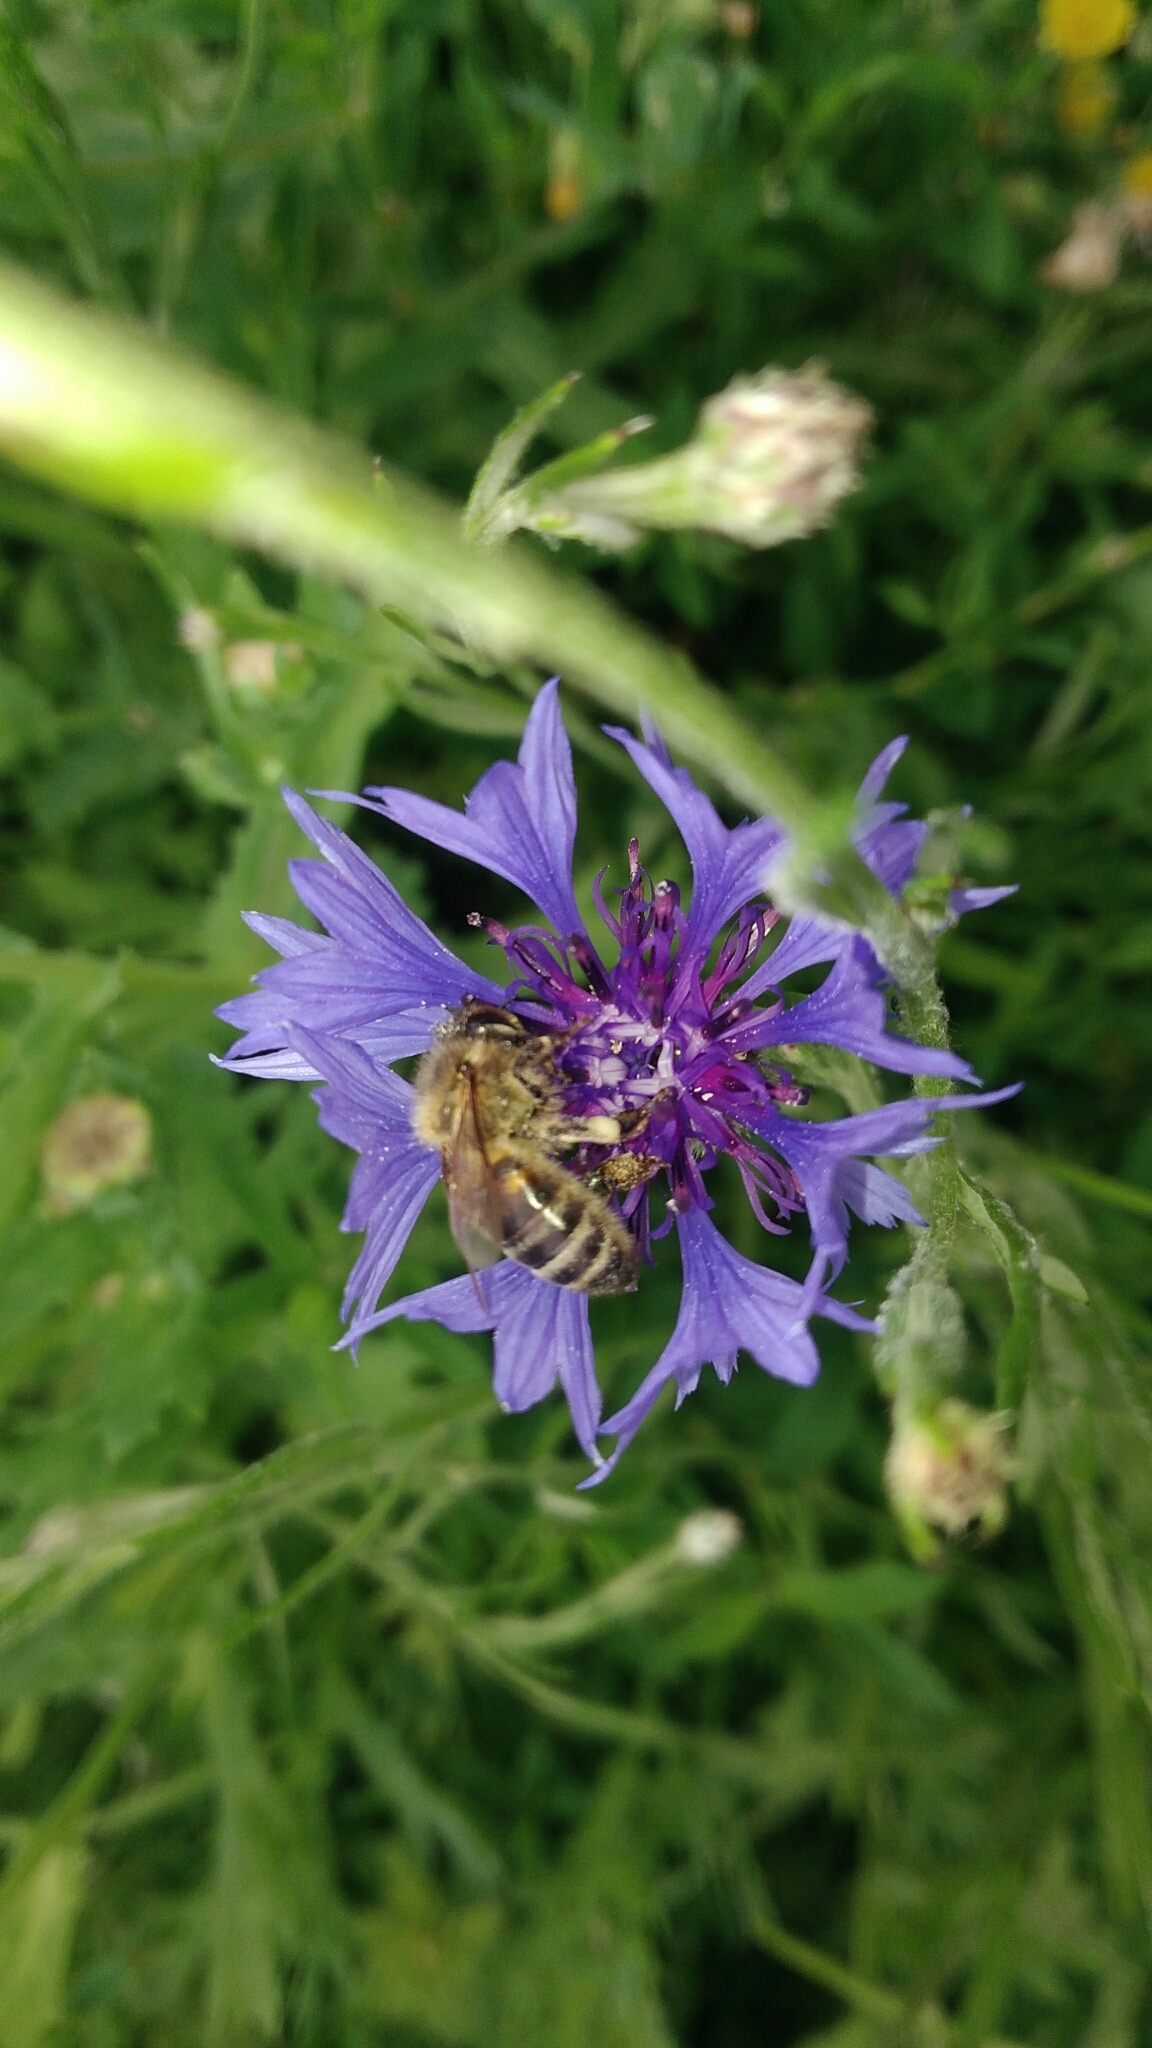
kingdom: Animalia
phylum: Arthropoda
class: Insecta
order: Hymenoptera
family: Apidae
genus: Apis
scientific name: Apis mellifera
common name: Honey bee
